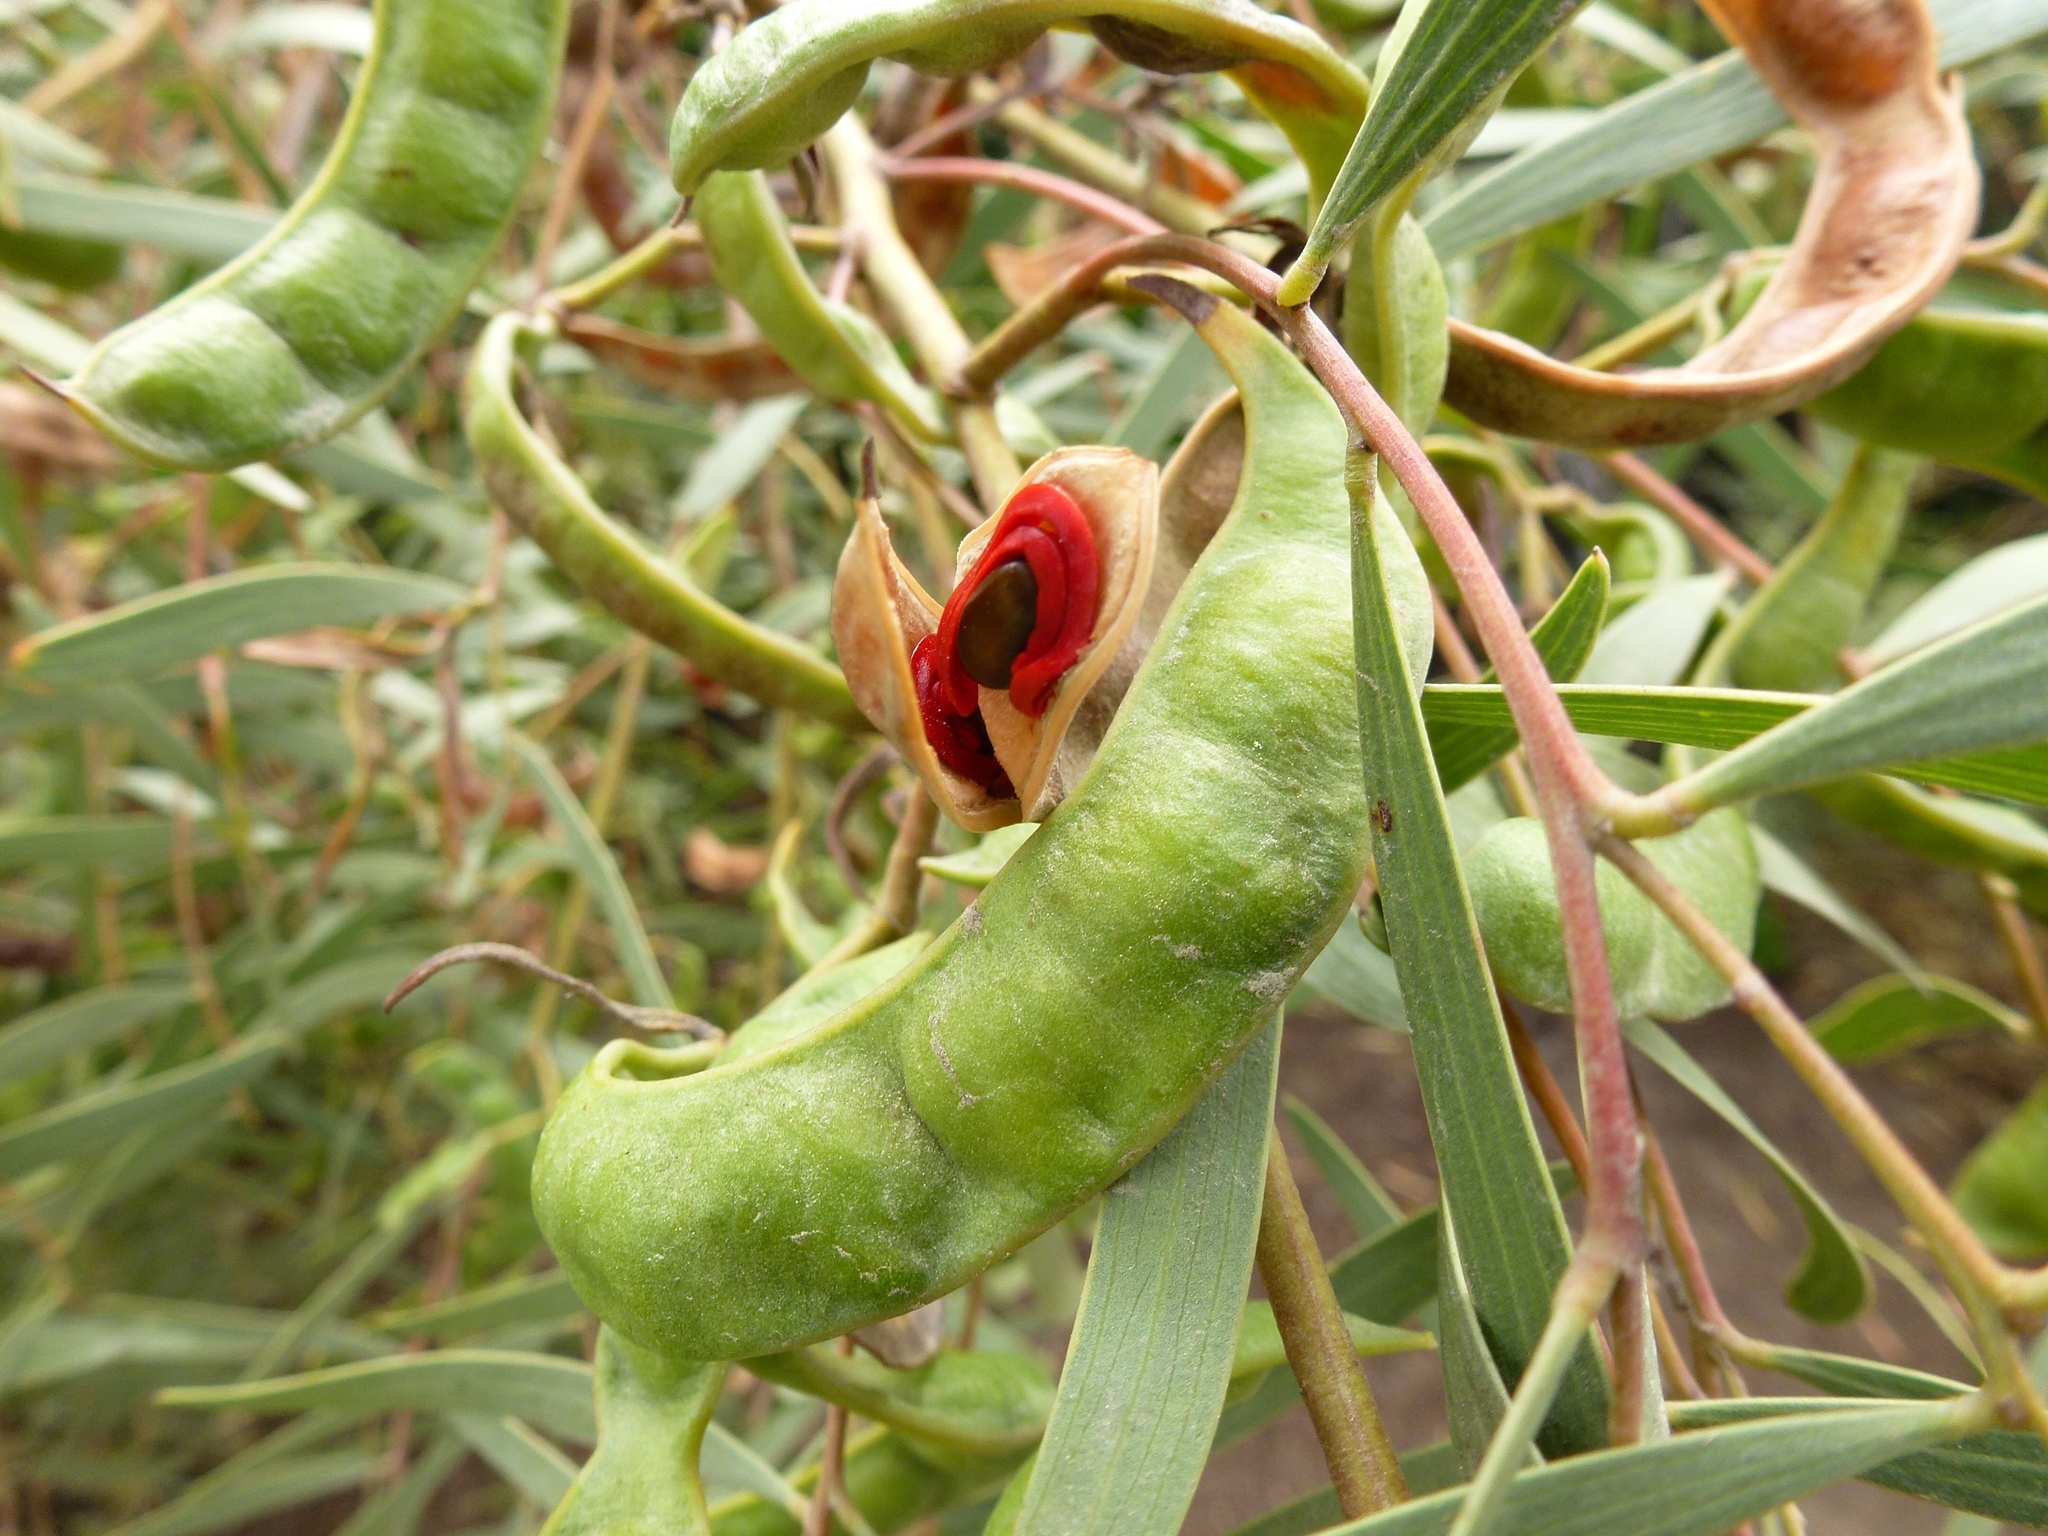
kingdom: Plantae
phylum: Tracheophyta
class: Magnoliopsida
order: Fabales
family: Fabaceae
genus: Acacia
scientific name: Acacia cyclops
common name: Coastal wattle
